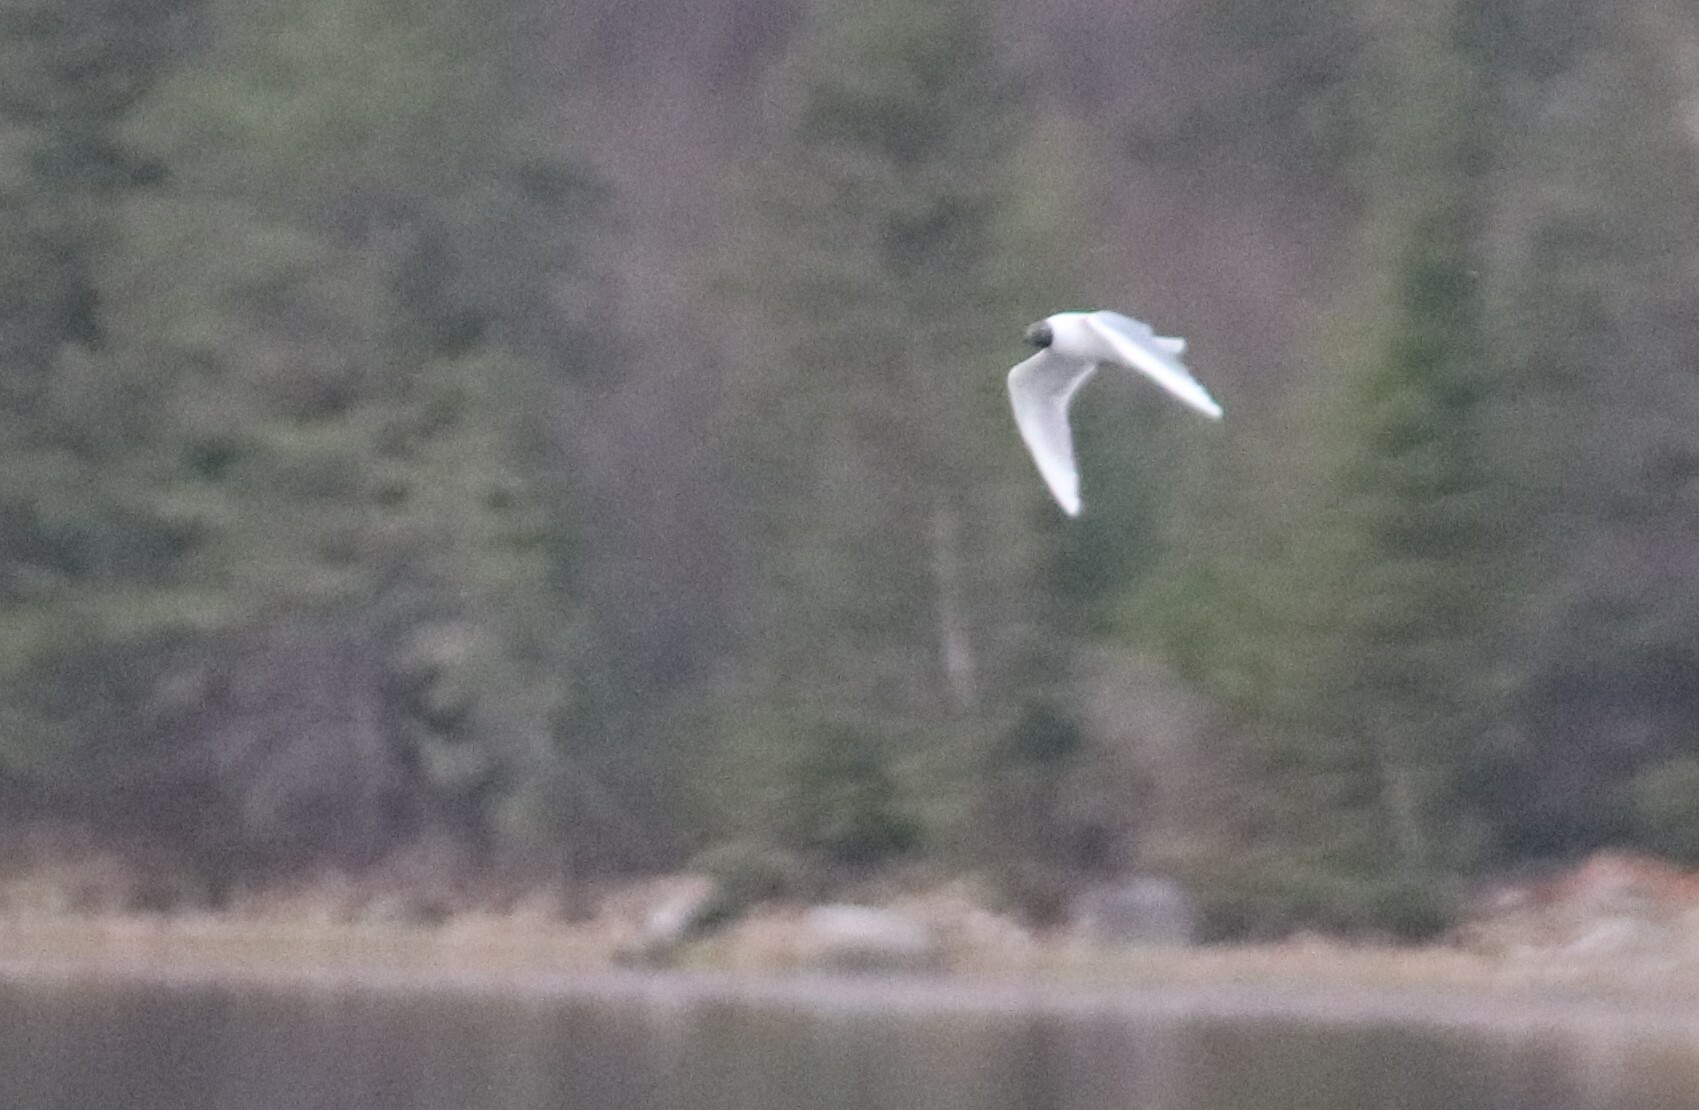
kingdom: Animalia
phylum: Chordata
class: Aves
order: Charadriiformes
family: Laridae
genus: Chroicocephalus
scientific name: Chroicocephalus philadelphia
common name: Bonaparte's gull
